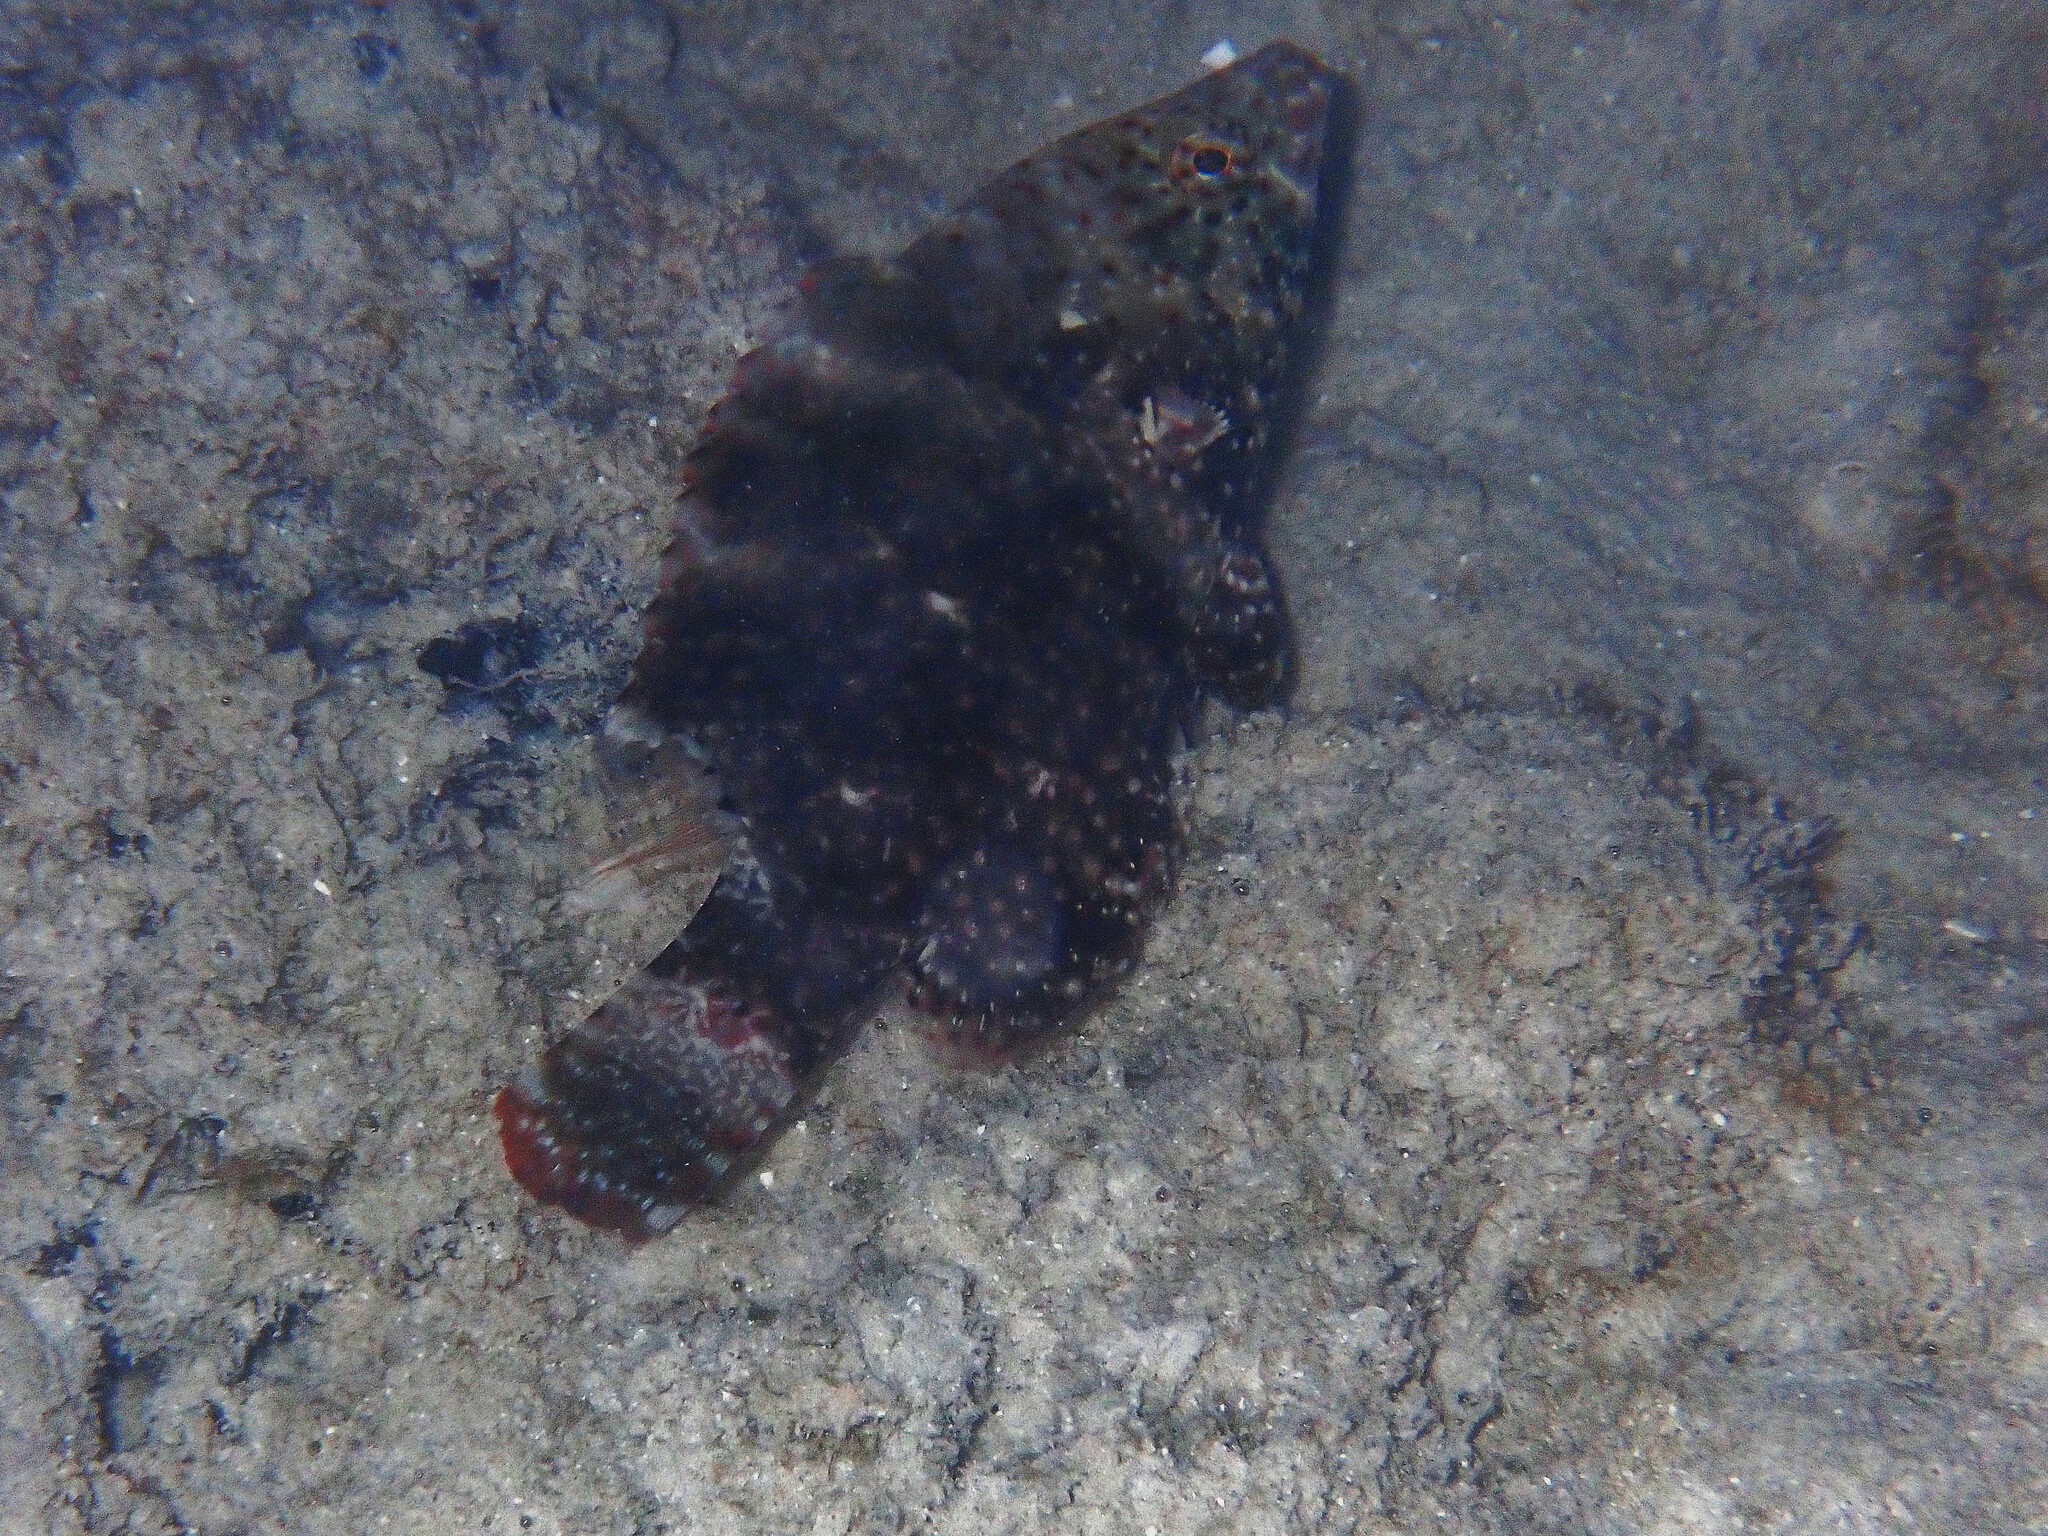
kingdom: Animalia
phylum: Chordata
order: Perciformes
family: Labridae
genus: Cheilinus
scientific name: Cheilinus chlorourus
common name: Floral wrasse
